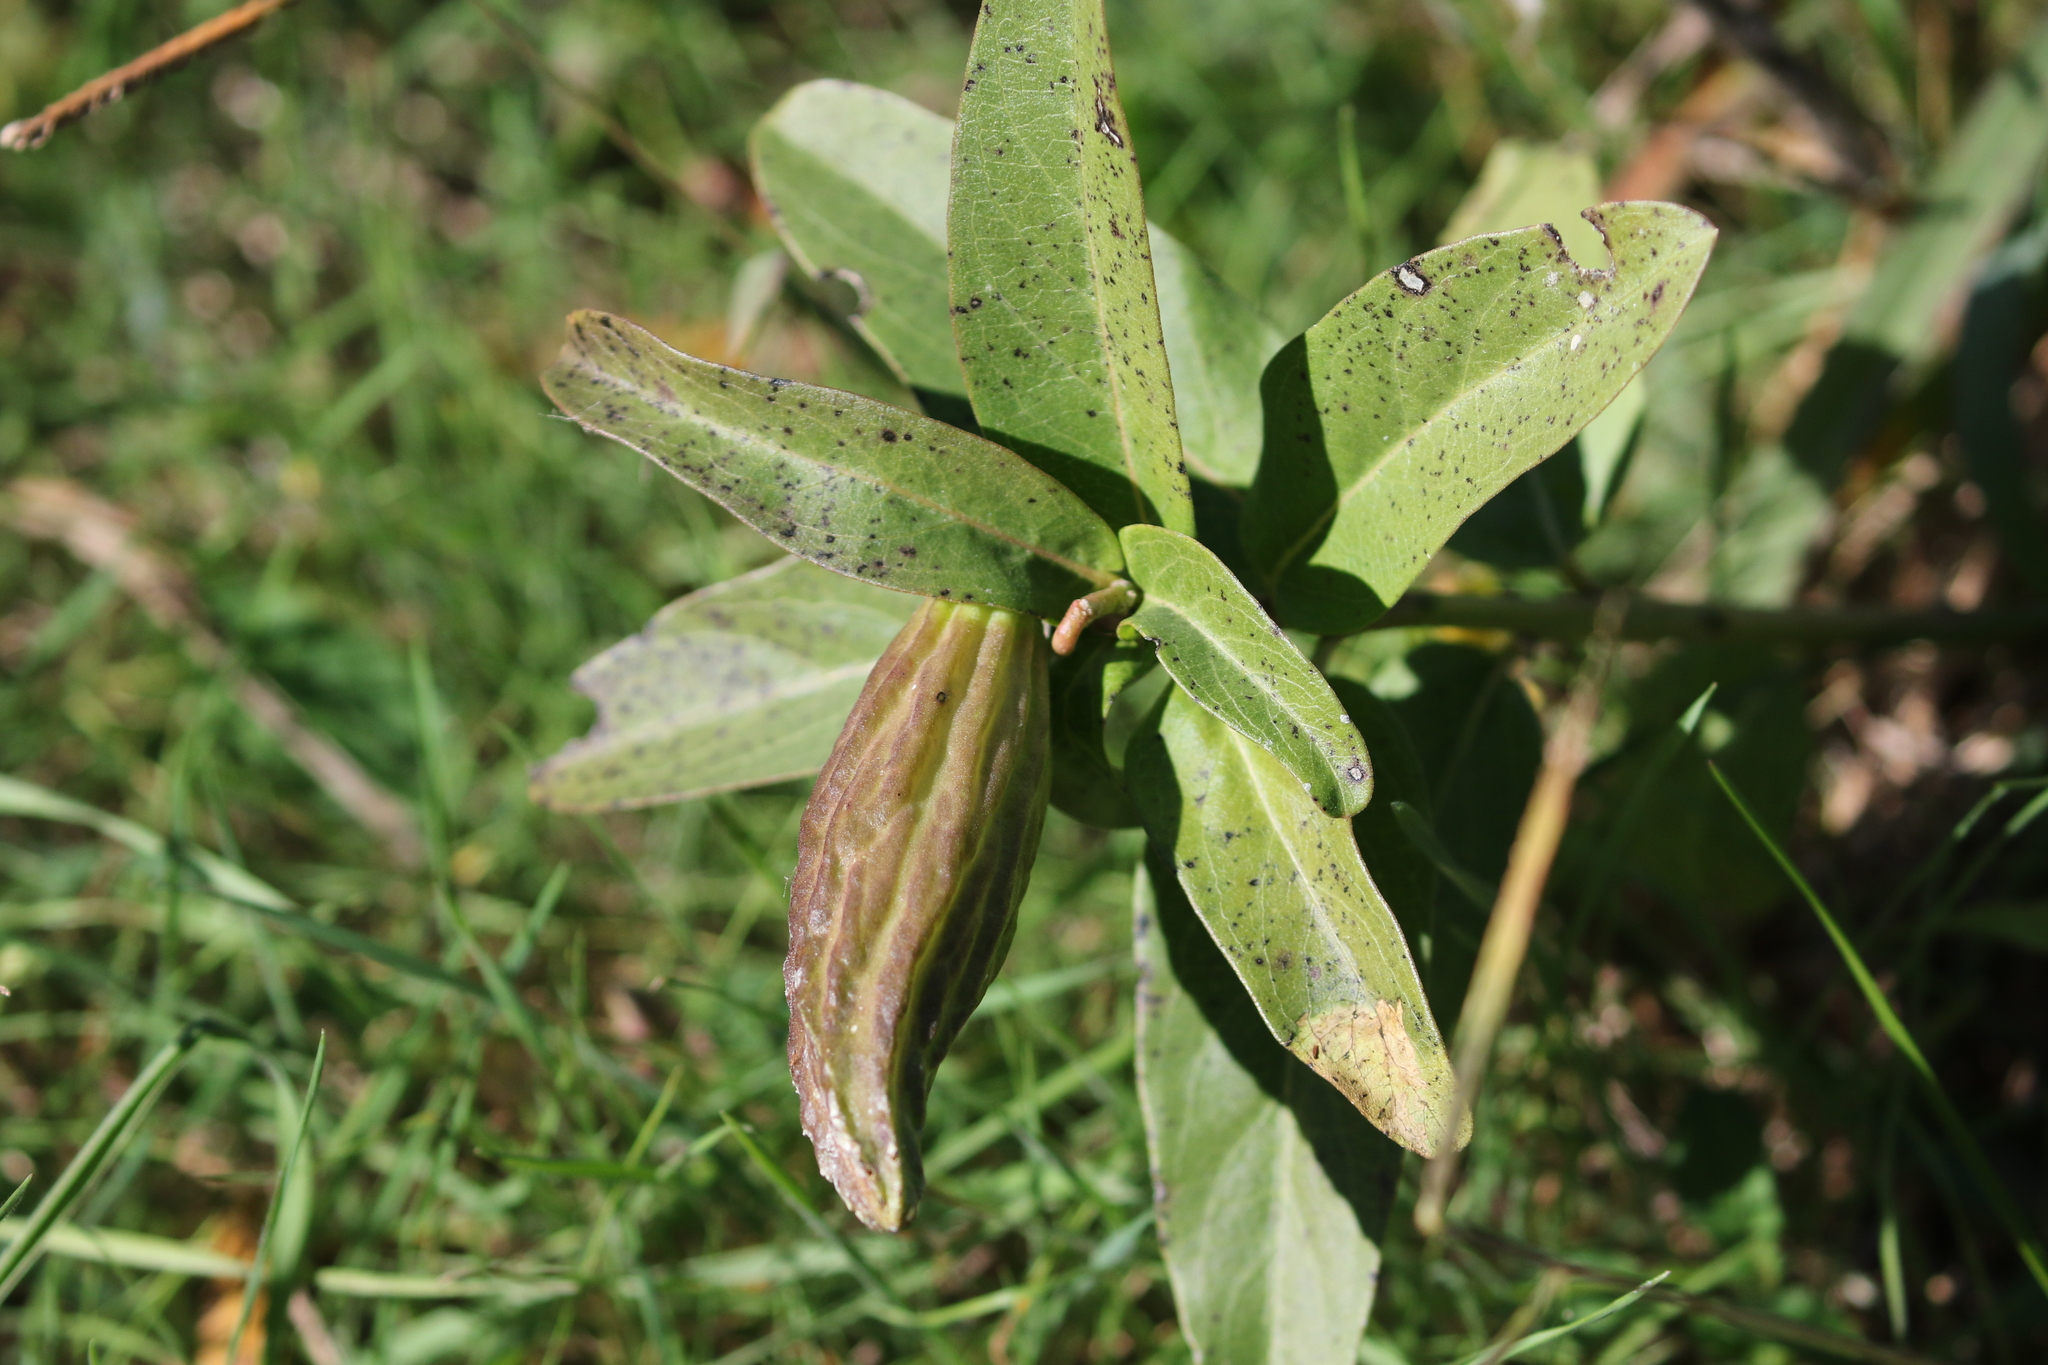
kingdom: Plantae
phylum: Tracheophyta
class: Magnoliopsida
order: Gentianales
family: Apocynaceae
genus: Asclepias
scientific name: Asclepias viridis
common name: Antelope-horns
